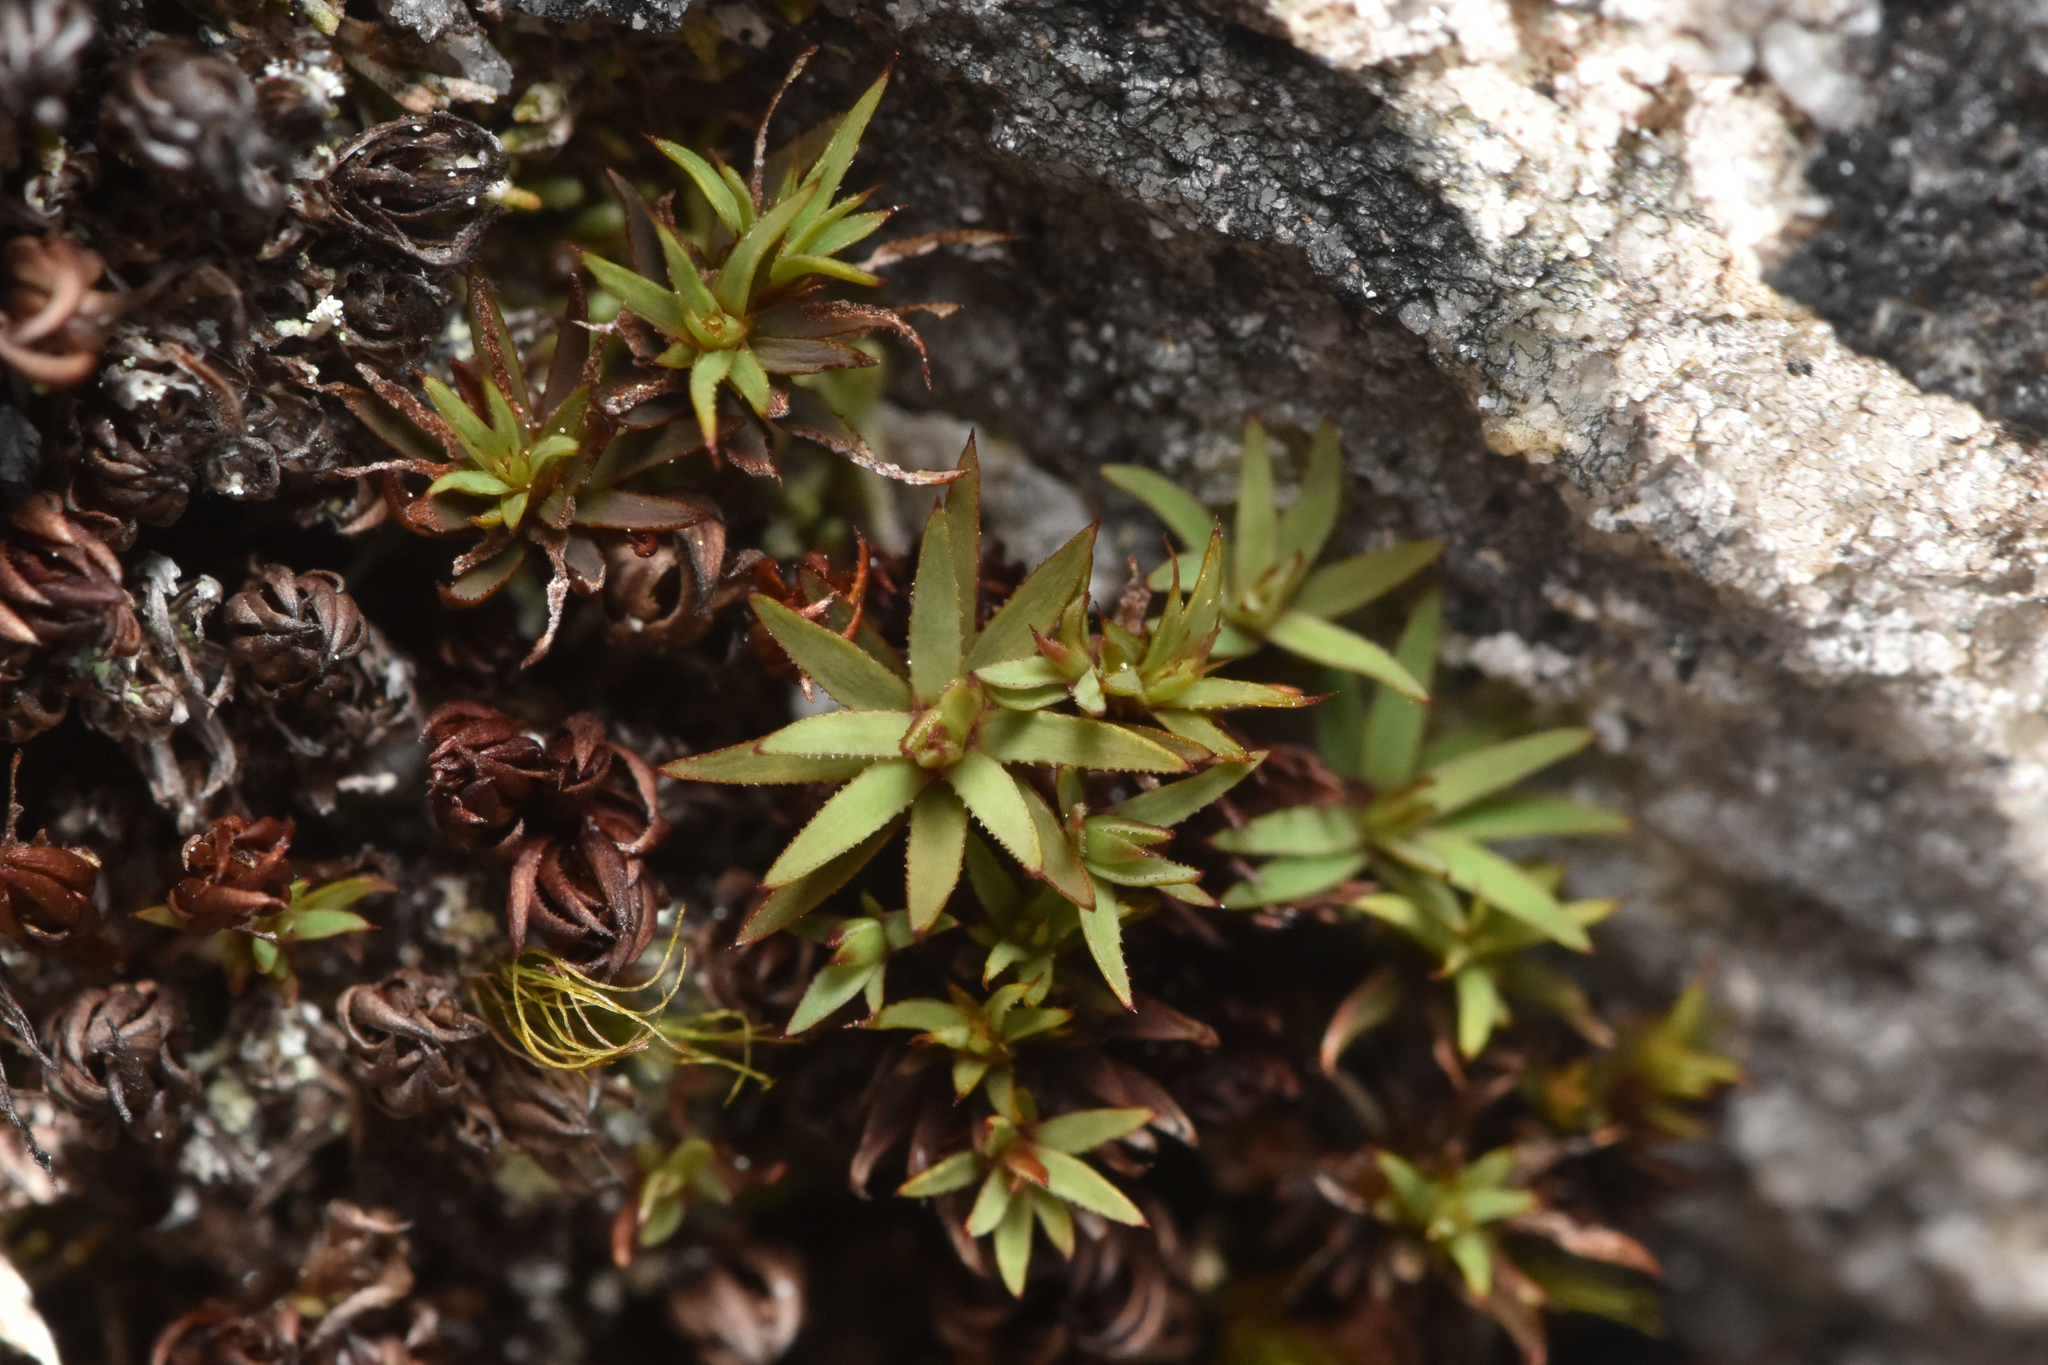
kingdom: Plantae
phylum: Bryophyta
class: Polytrichopsida
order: Polytrichales
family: Polytrichaceae
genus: Pogonatum
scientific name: Pogonatum urnigerum
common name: Urn hair moss
